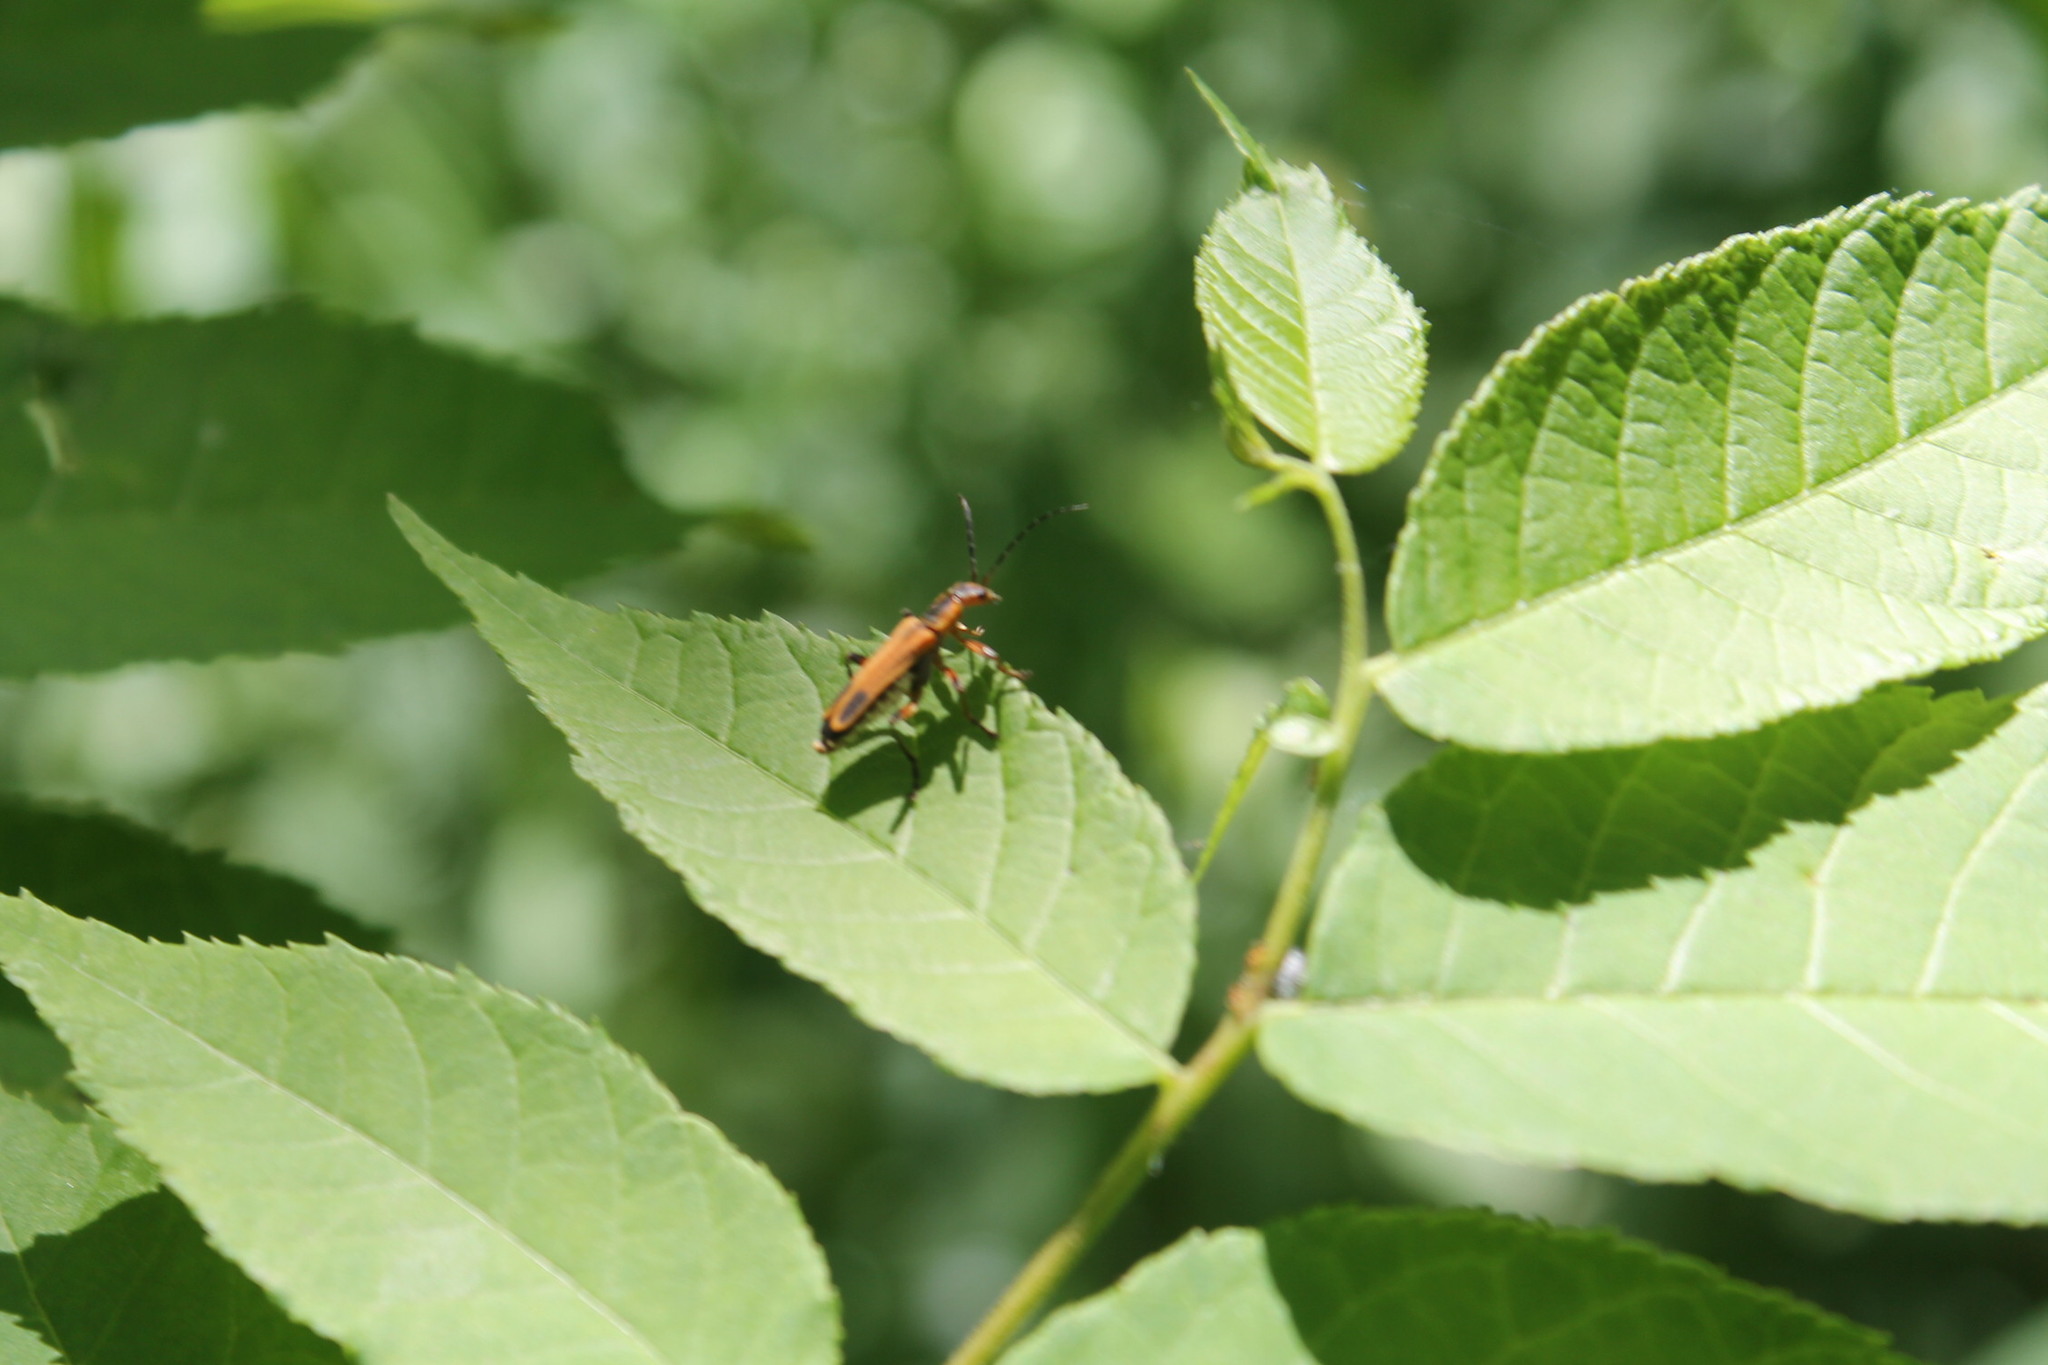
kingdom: Animalia
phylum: Arthropoda
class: Insecta
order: Coleoptera
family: Cantharidae
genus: Chauliognathus
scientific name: Chauliognathus marginatus
